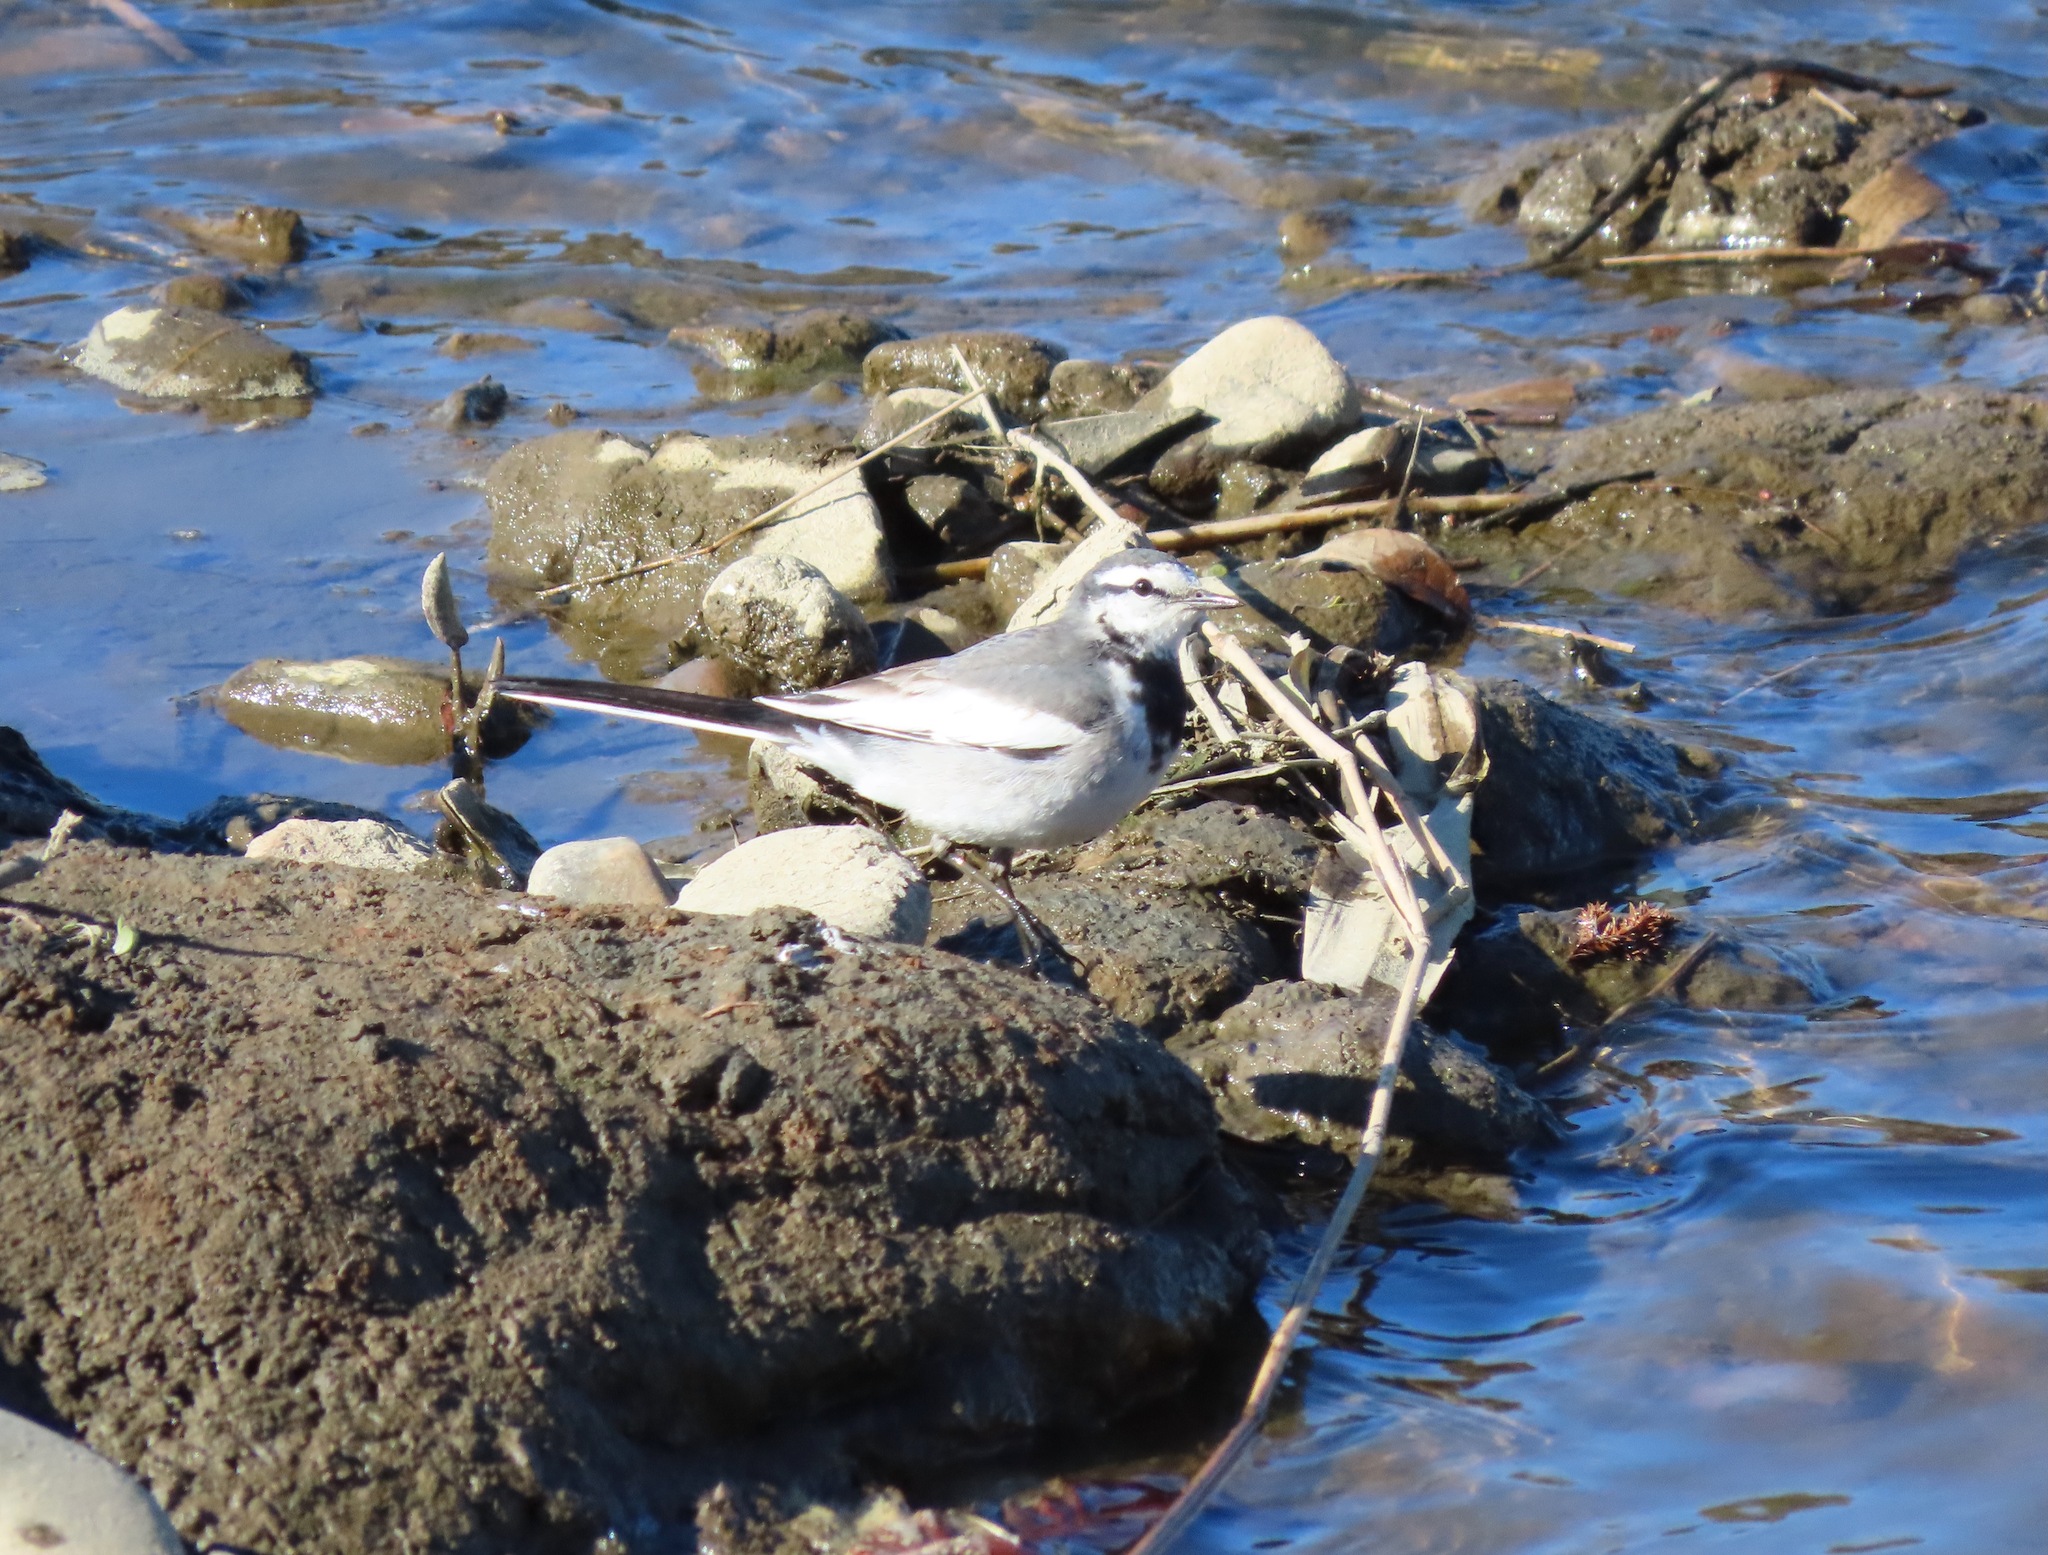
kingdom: Animalia
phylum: Chordata
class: Aves
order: Passeriformes
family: Motacillidae
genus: Motacilla
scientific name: Motacilla alba
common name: White wagtail
